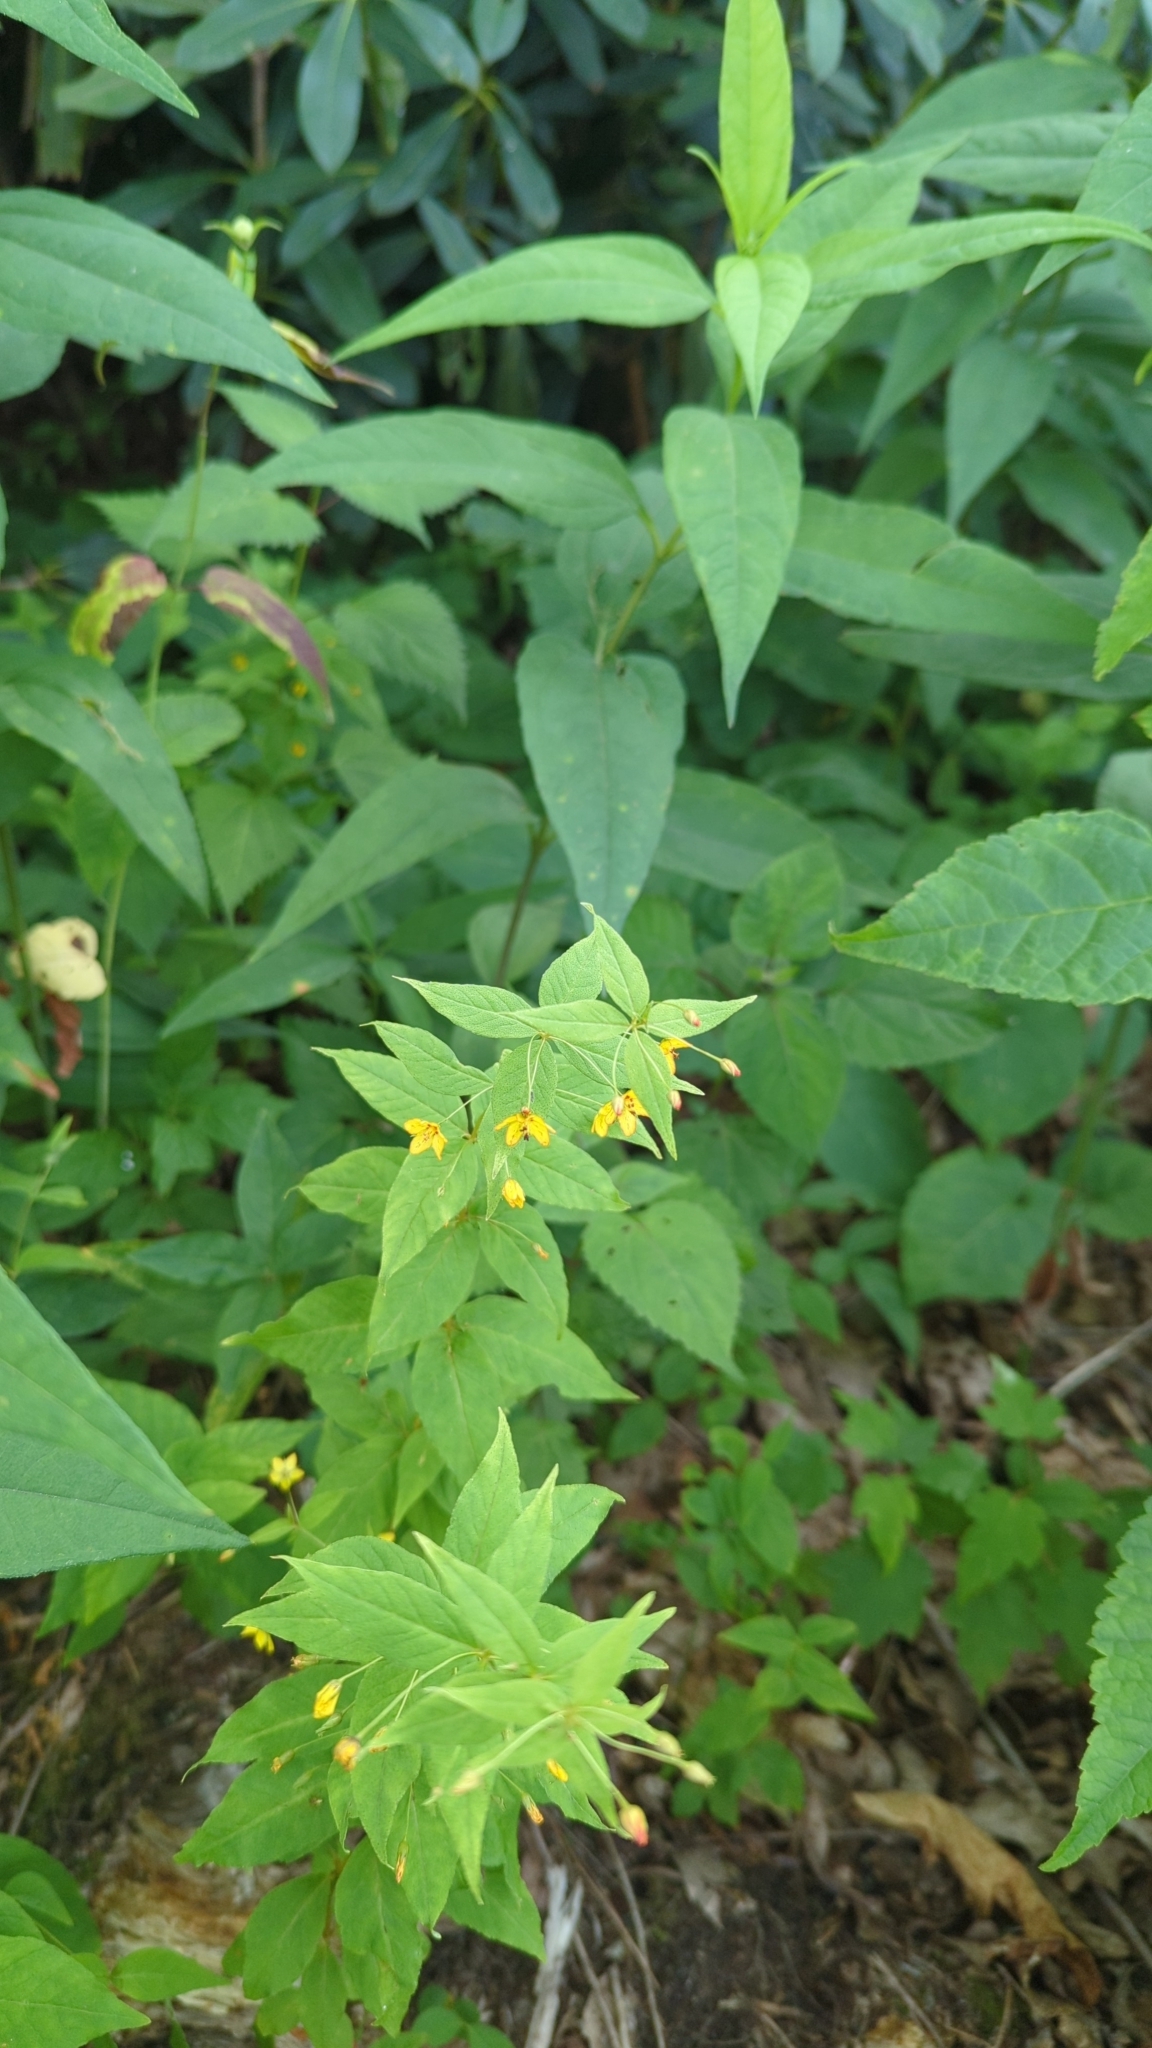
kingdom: Plantae
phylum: Tracheophyta
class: Magnoliopsida
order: Ericales
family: Primulaceae
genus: Lysimachia
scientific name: Lysimachia quadrifolia
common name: Whorled loosestrife
